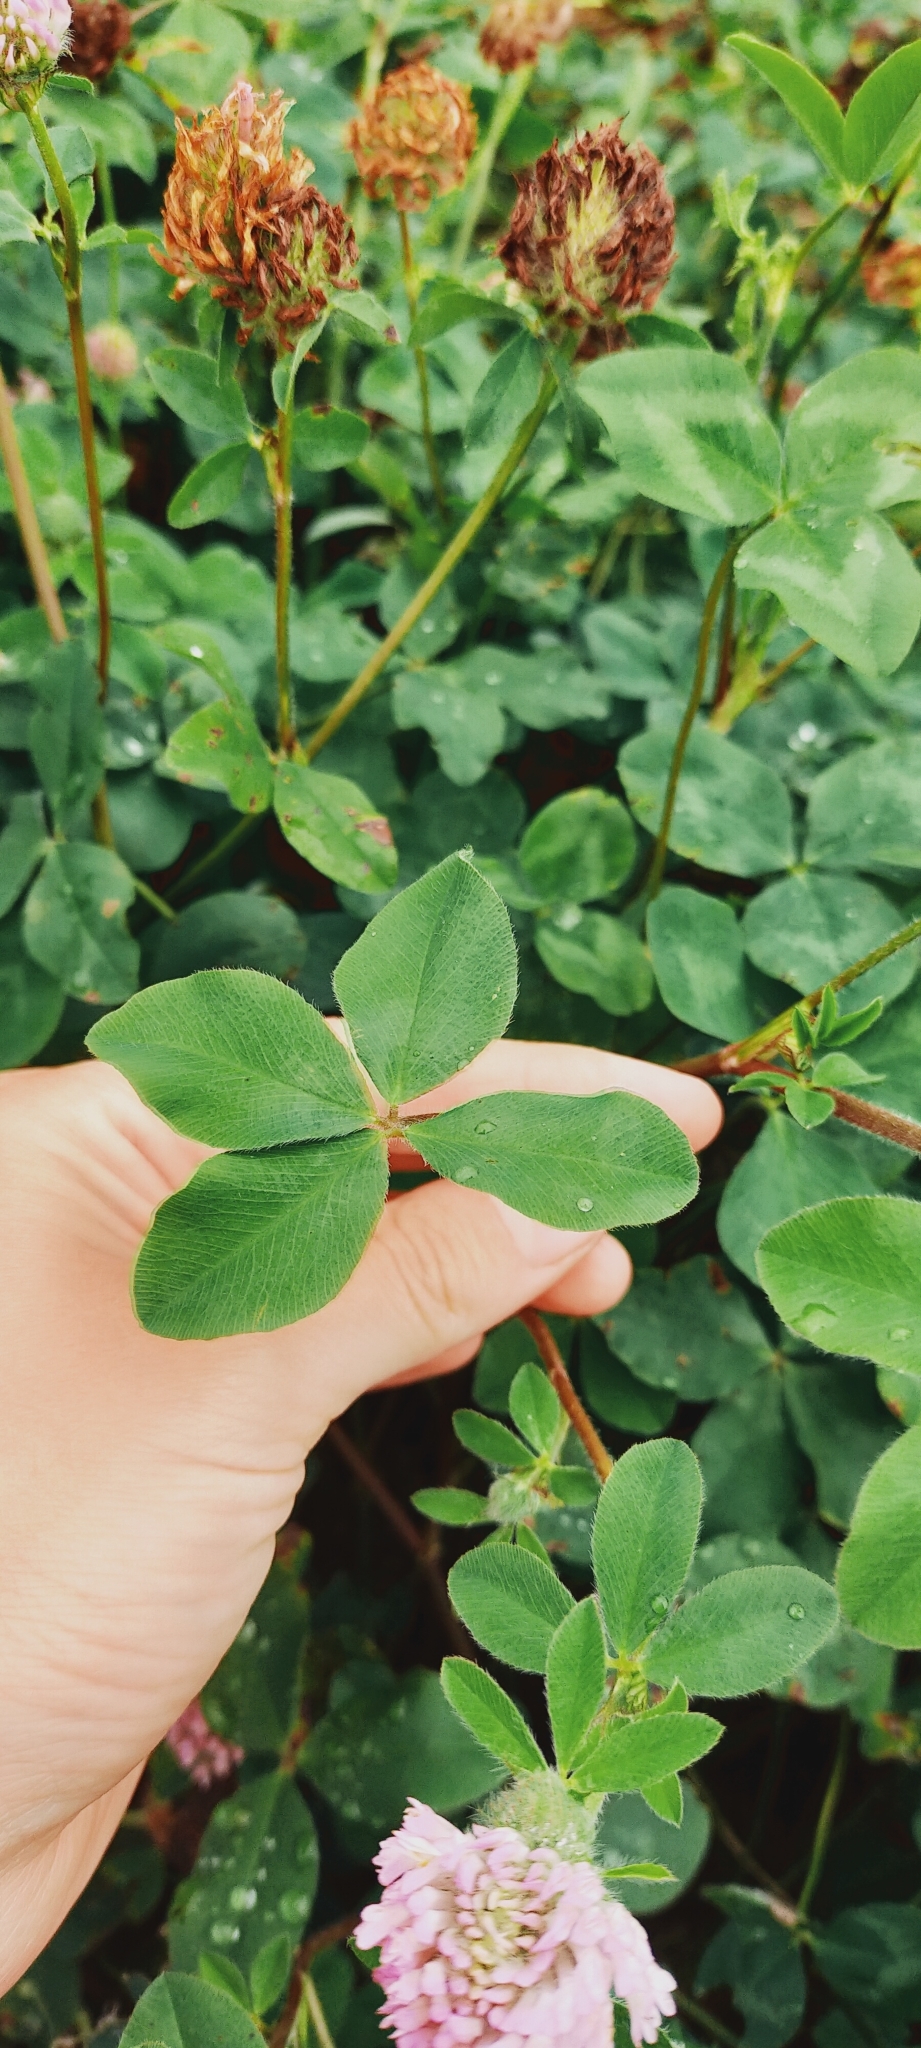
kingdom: Plantae
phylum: Tracheophyta
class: Magnoliopsida
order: Fabales
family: Fabaceae
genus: Trifolium
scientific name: Trifolium pratense
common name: Red clover
